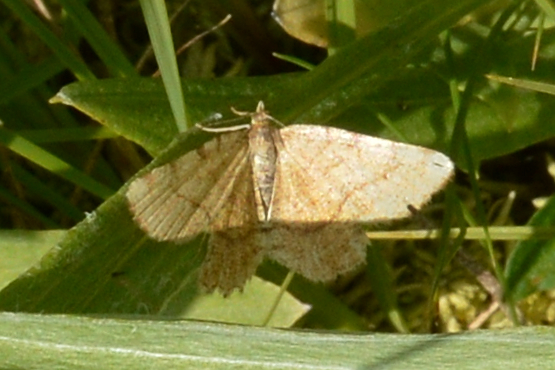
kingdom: Animalia
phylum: Arthropoda
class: Insecta
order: Lepidoptera
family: Geometridae
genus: Macaria
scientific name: Macaria brunneata
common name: Rannoch looper
